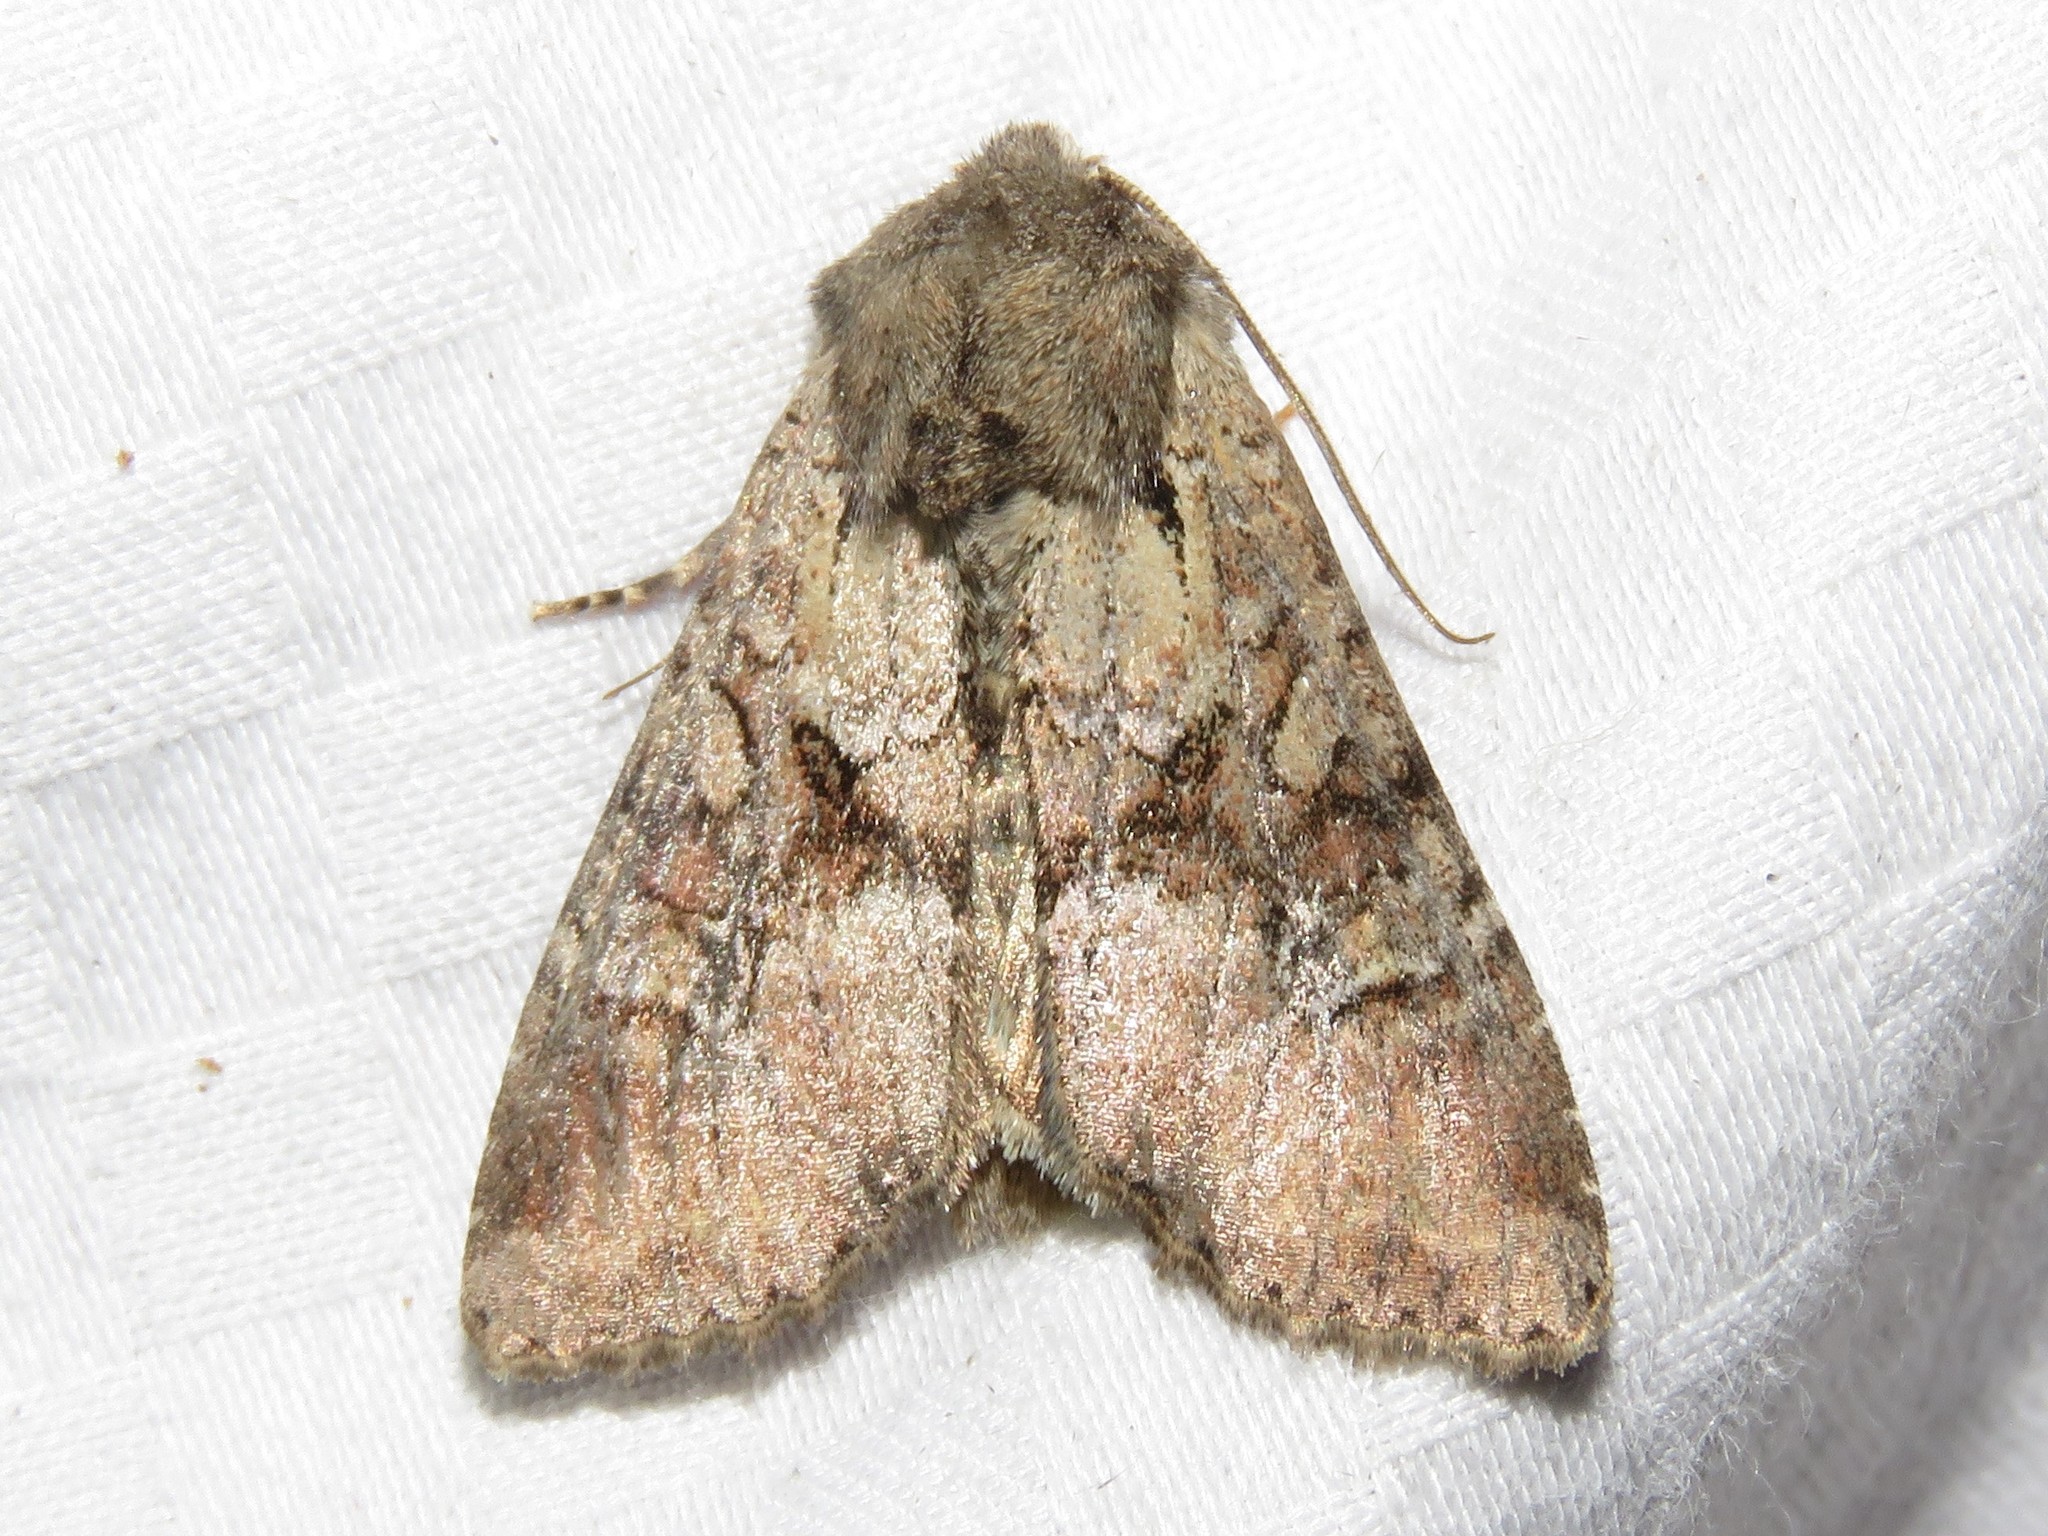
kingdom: Animalia
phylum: Arthropoda
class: Insecta
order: Lepidoptera
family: Noctuidae
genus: Apamea
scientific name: Apamea sordens
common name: Rustic shoulder-knot
